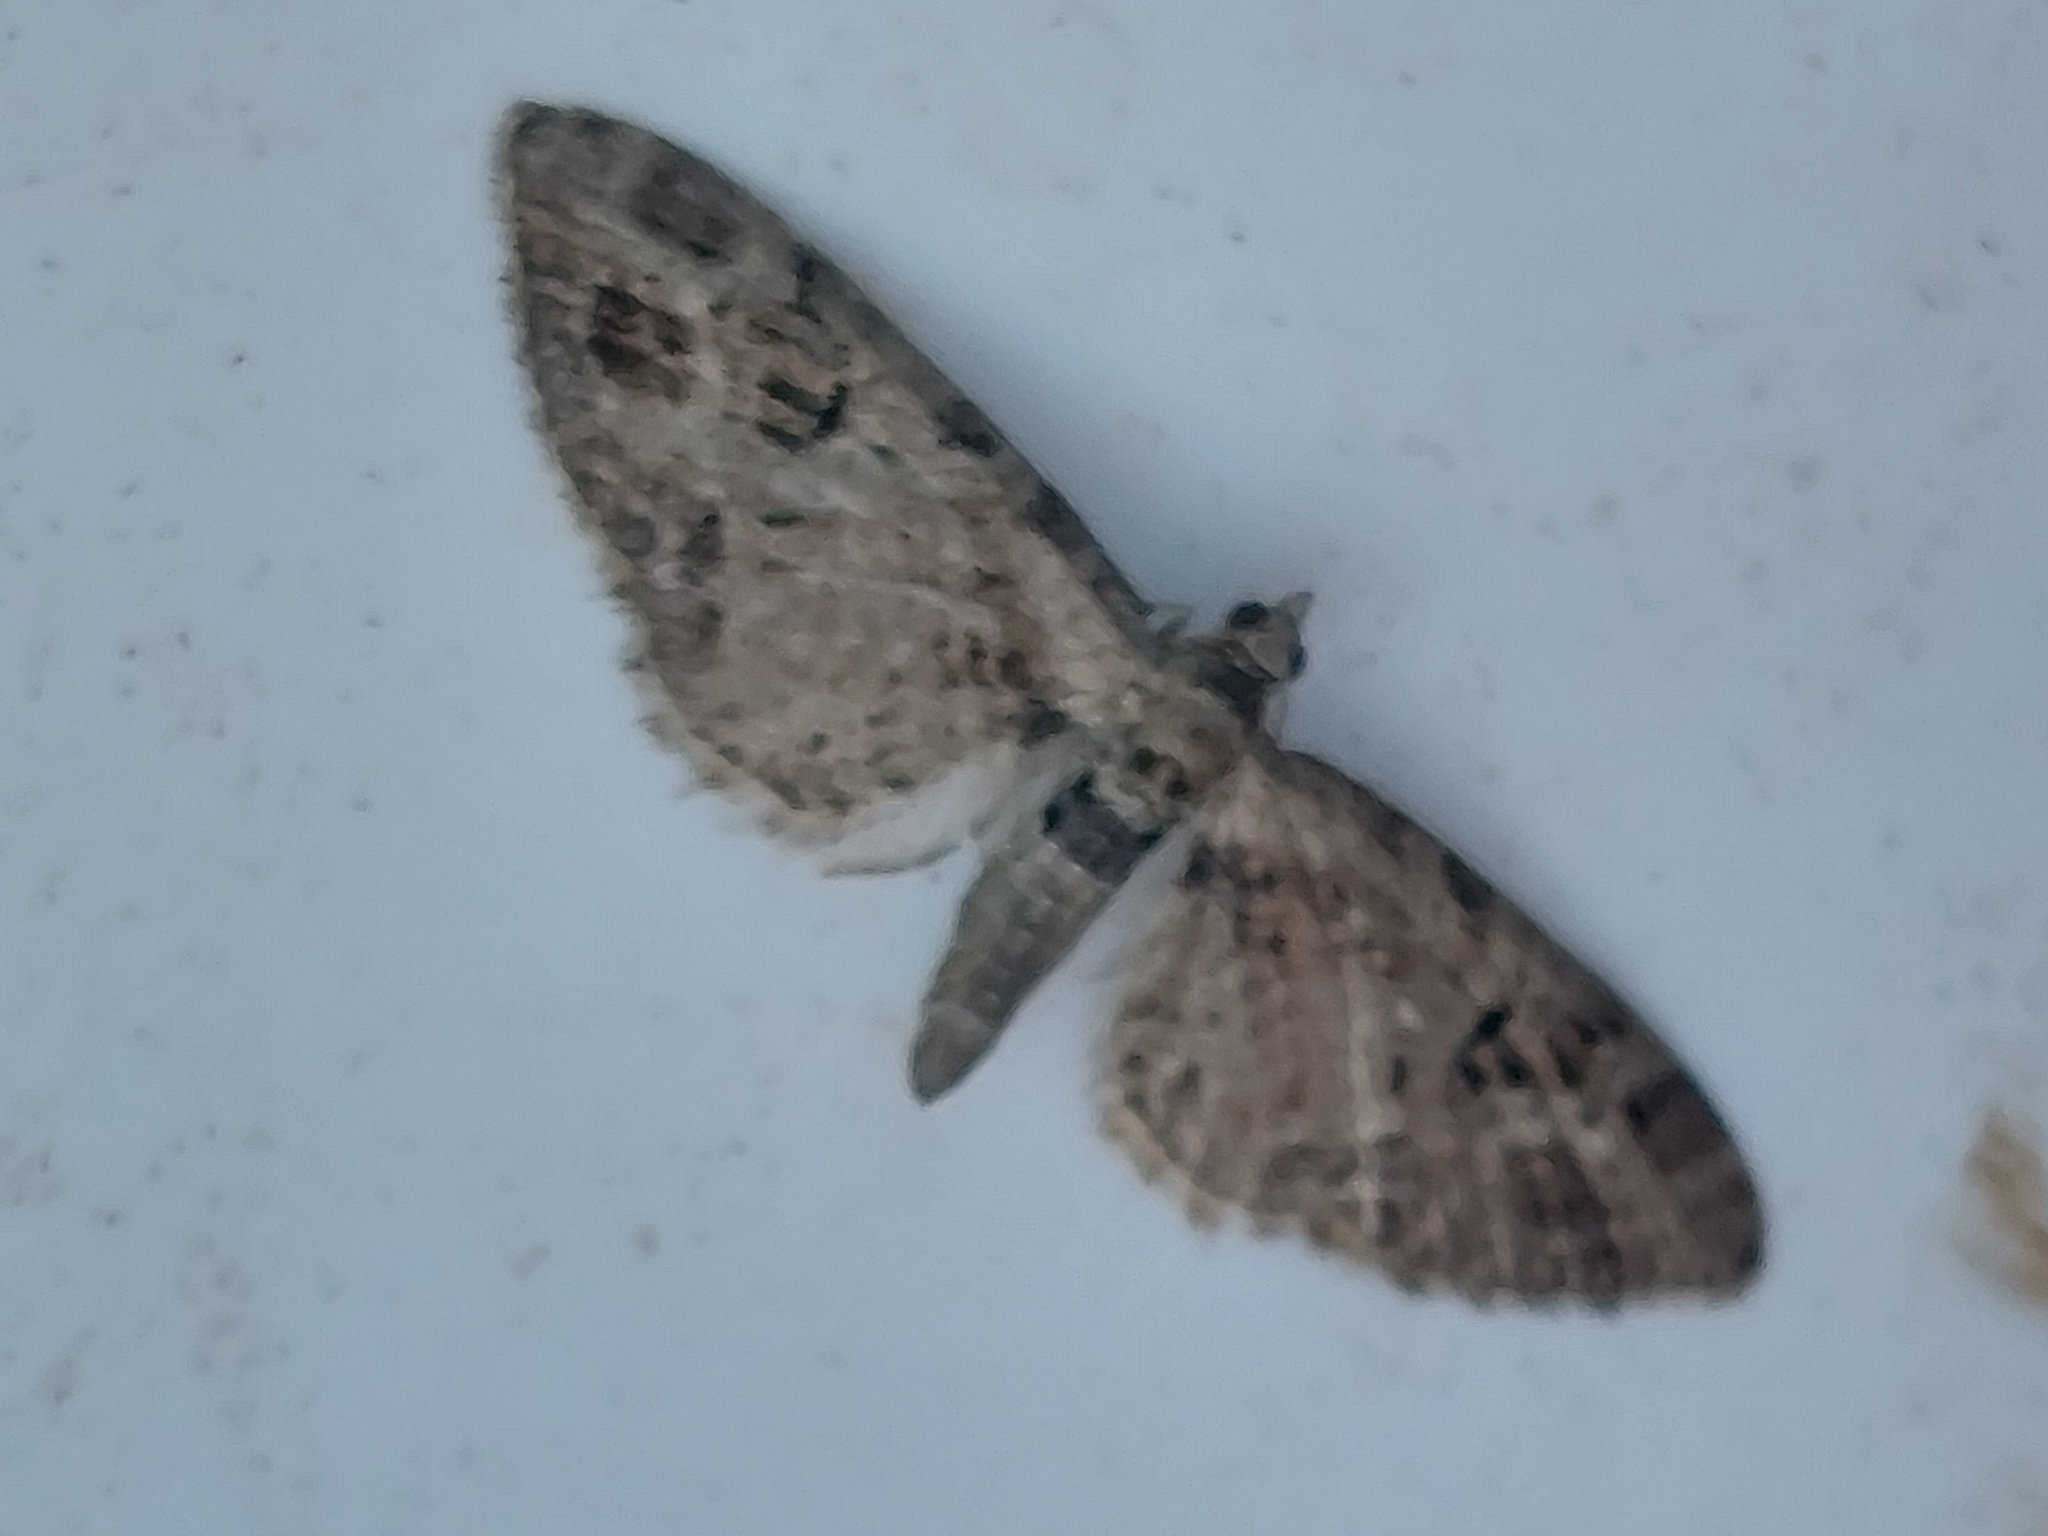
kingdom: Animalia
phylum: Arthropoda
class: Insecta
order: Lepidoptera
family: Geometridae
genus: Eupithecia
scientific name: Eupithecia exiguata
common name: Mottled pug
